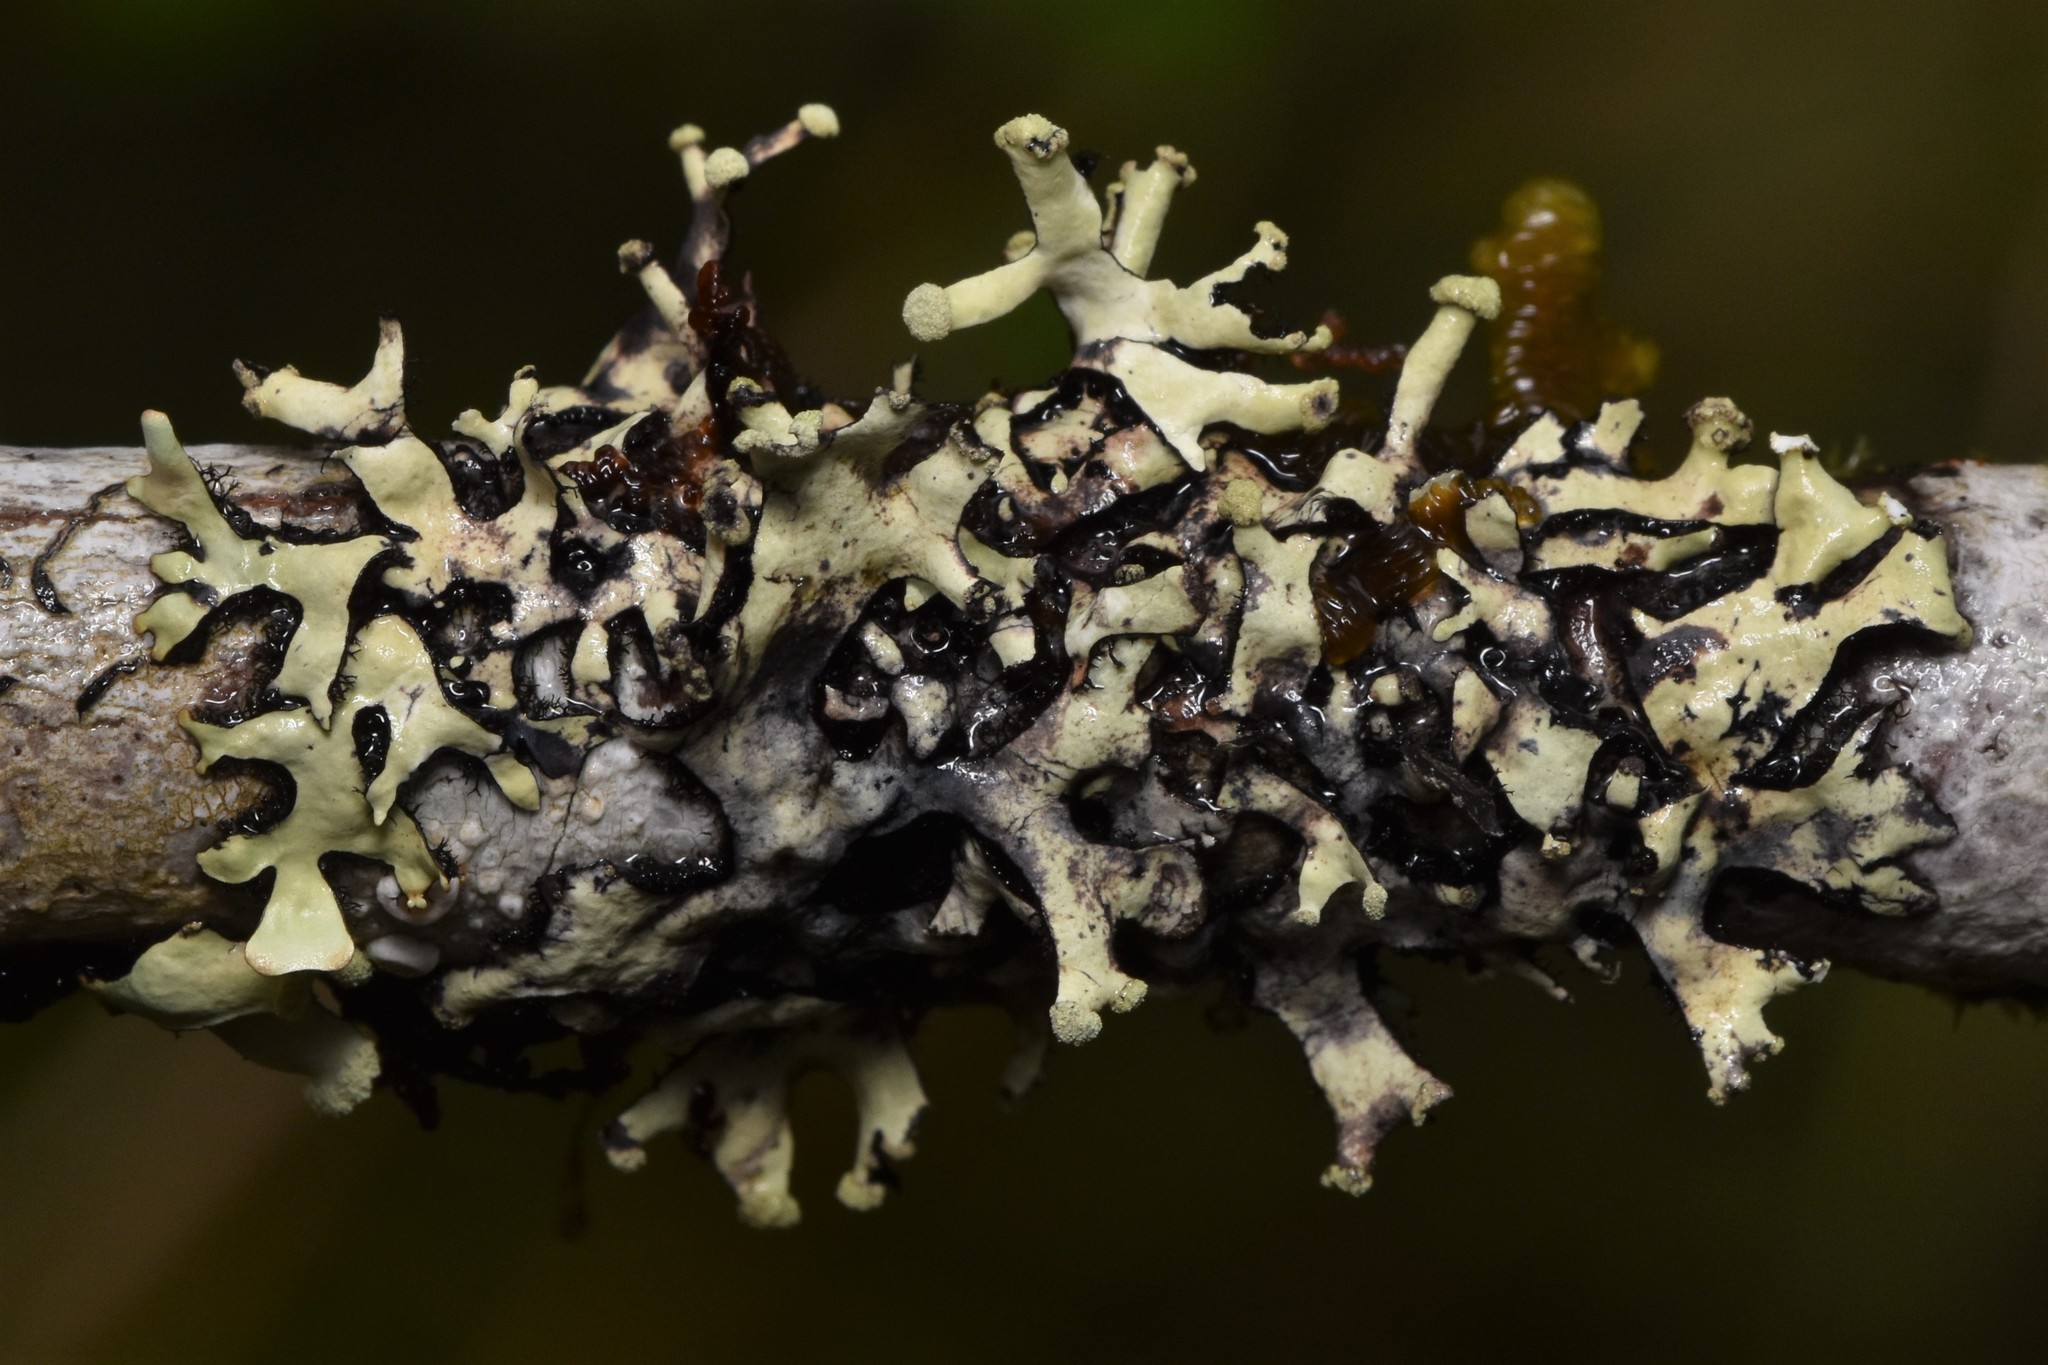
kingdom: Fungi
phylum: Ascomycota
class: Lecanoromycetes
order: Lecanorales
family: Parmeliaceae
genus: Hypotrachyna
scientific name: Hypotrachyna sinuosa
